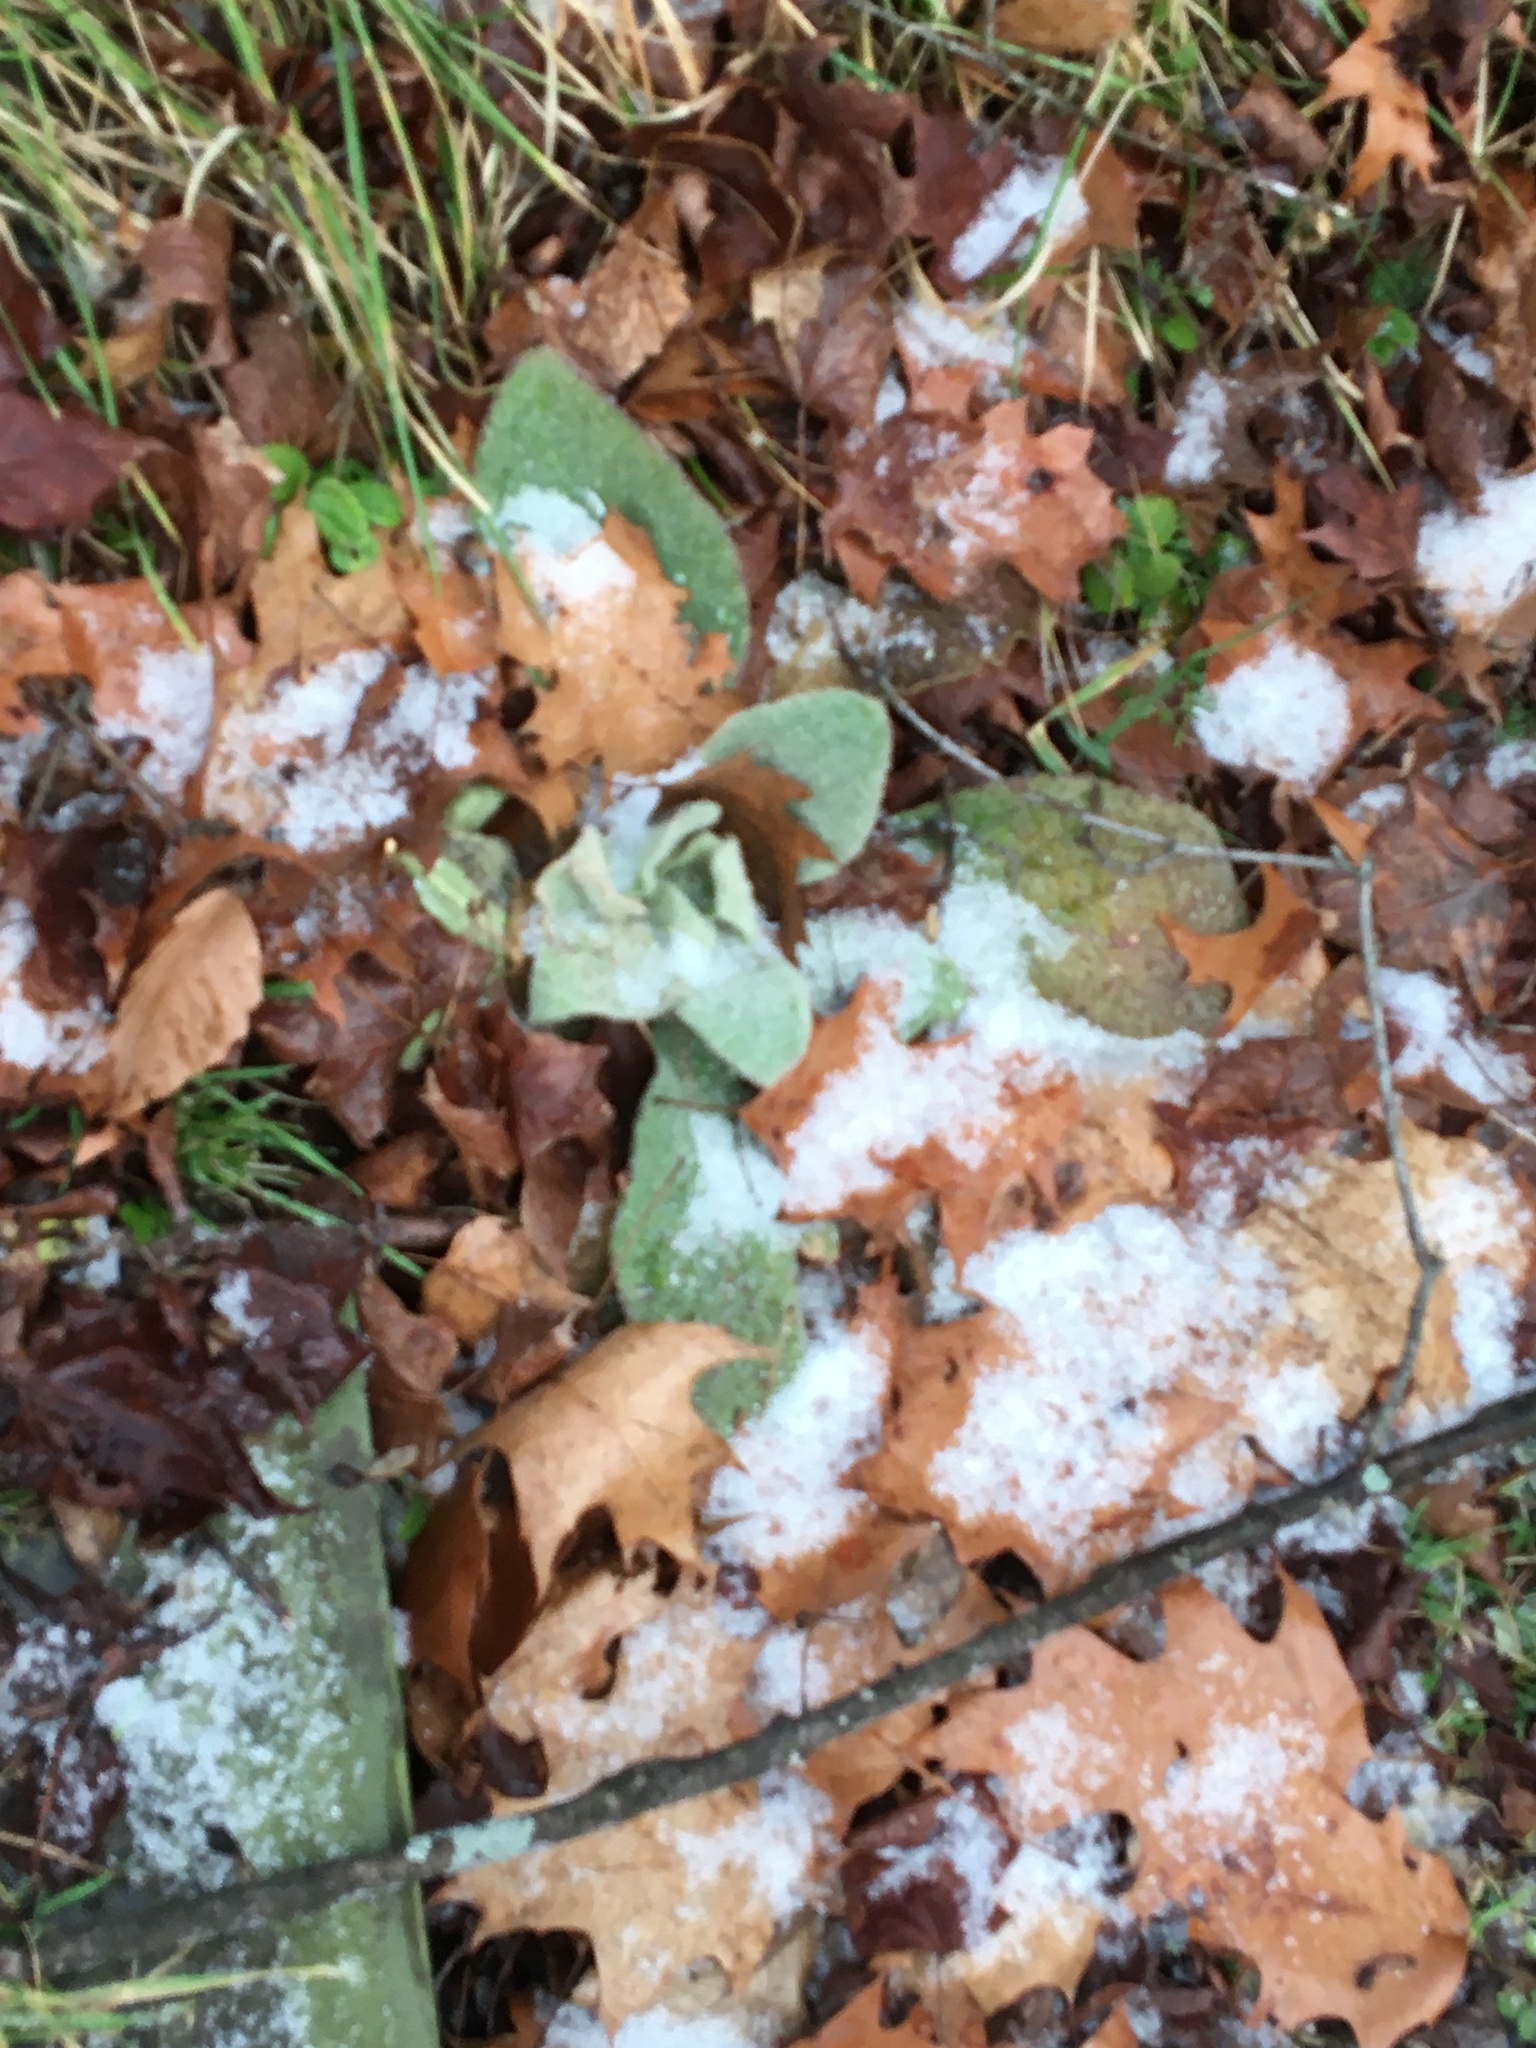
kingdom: Plantae
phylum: Tracheophyta
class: Magnoliopsida
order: Lamiales
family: Scrophulariaceae
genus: Verbascum
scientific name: Verbascum thapsus
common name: Common mullein
